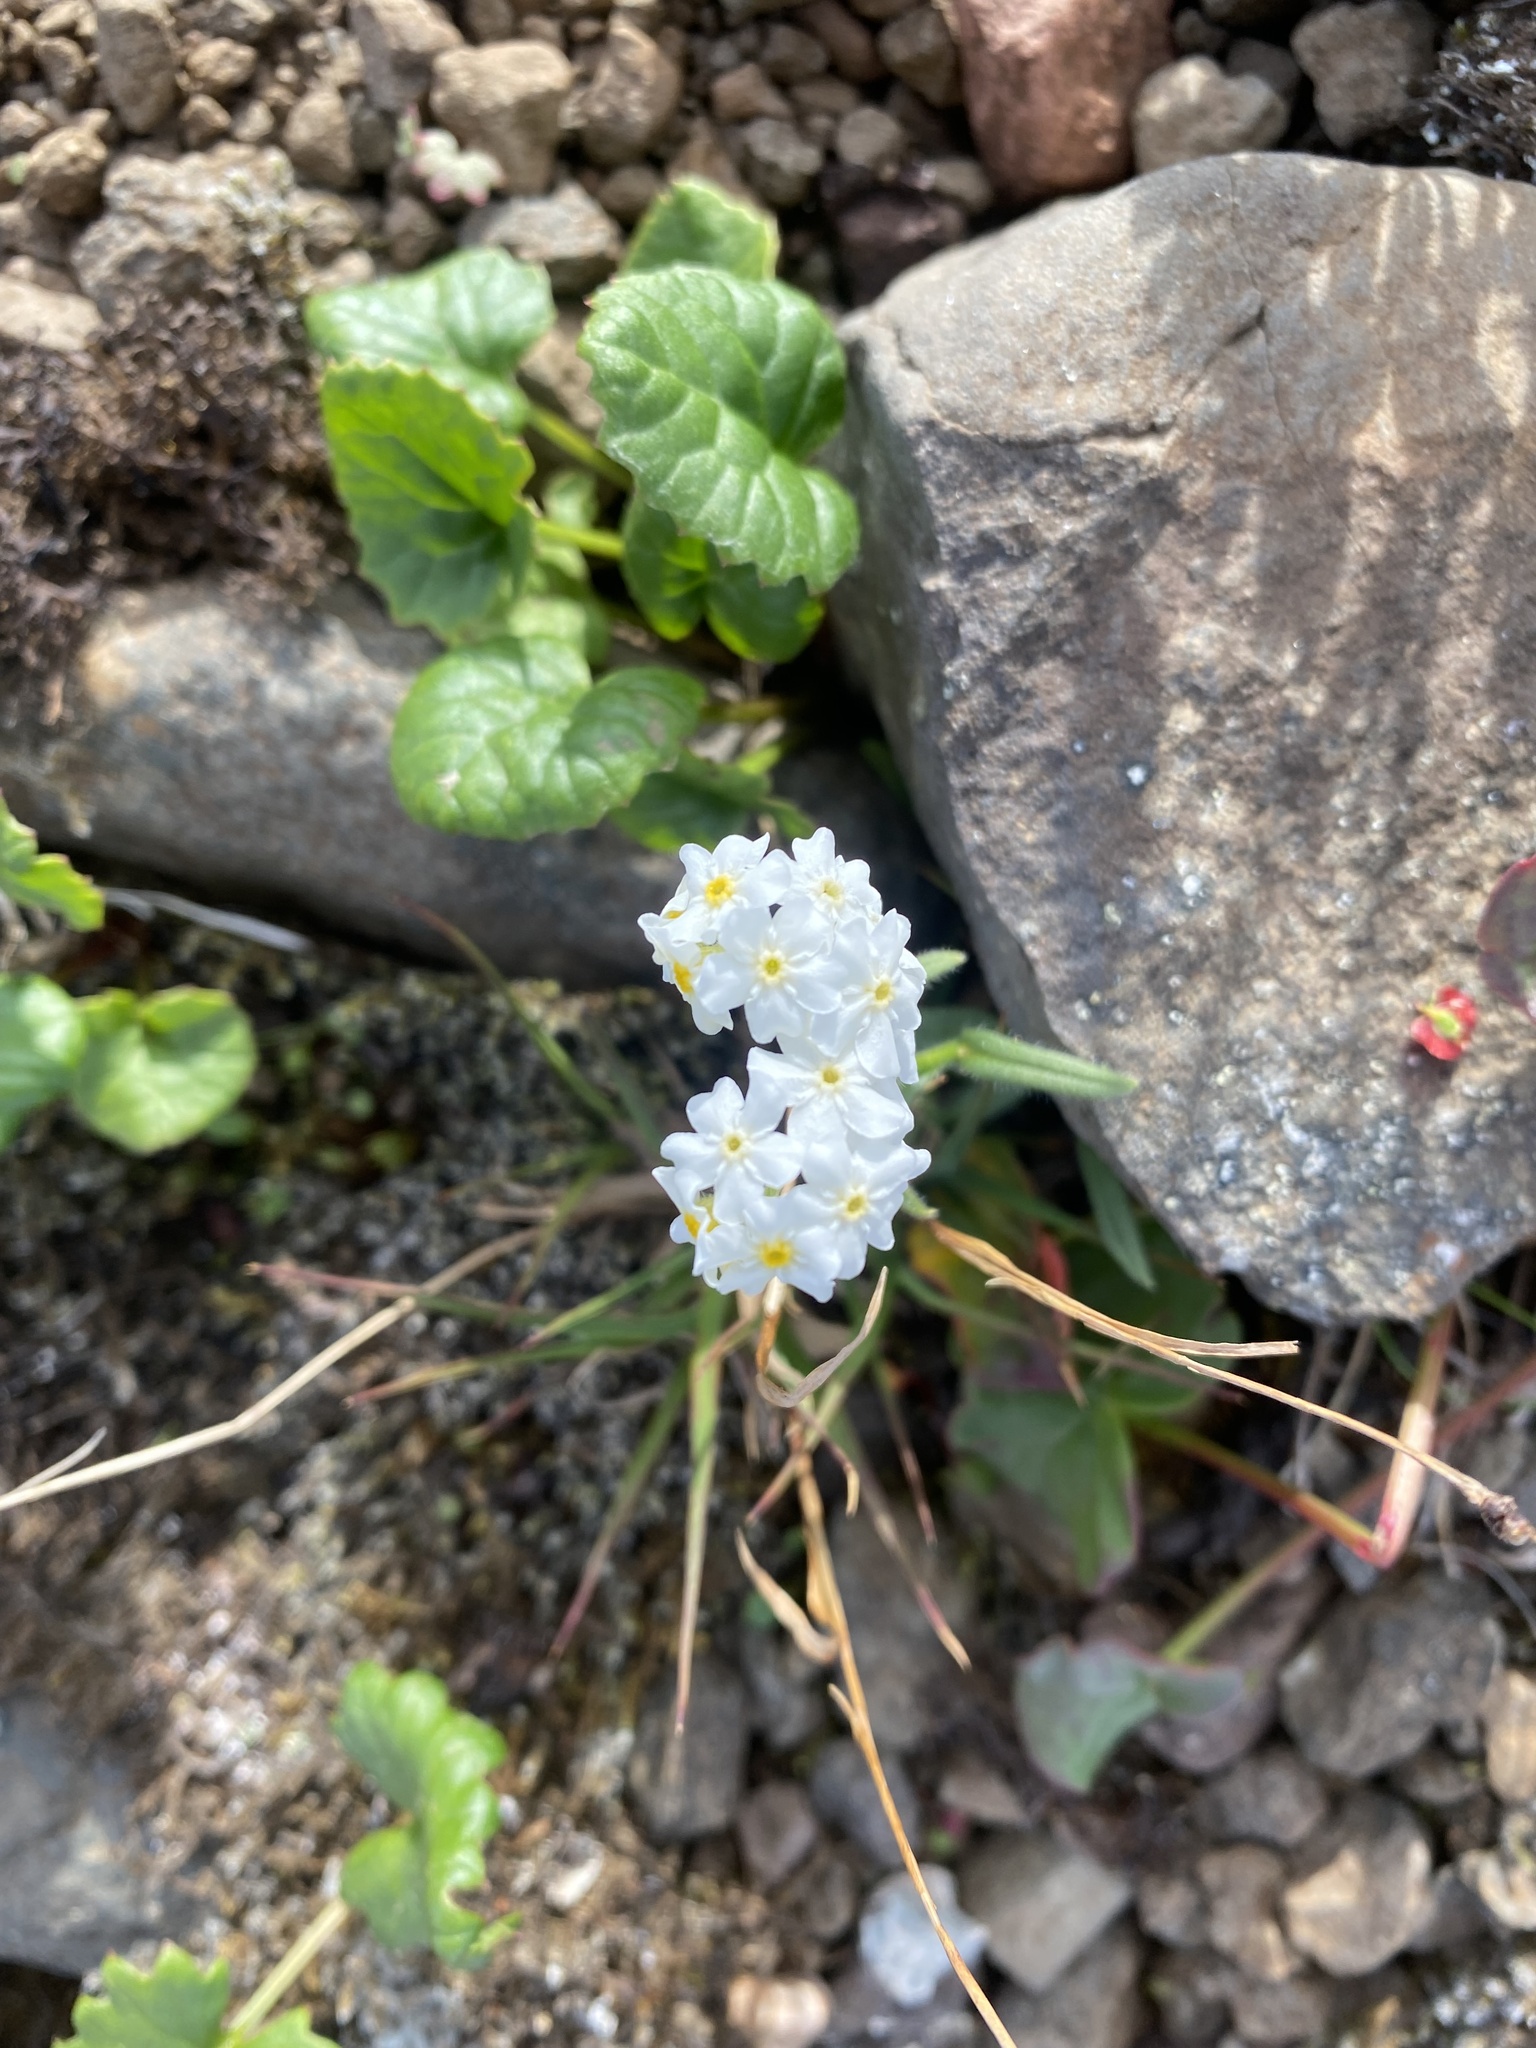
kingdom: Plantae
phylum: Tracheophyta
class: Magnoliopsida
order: Boraginales
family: Boraginaceae
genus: Myosotis
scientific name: Myosotis asiatica
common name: Asian forget-me-not
